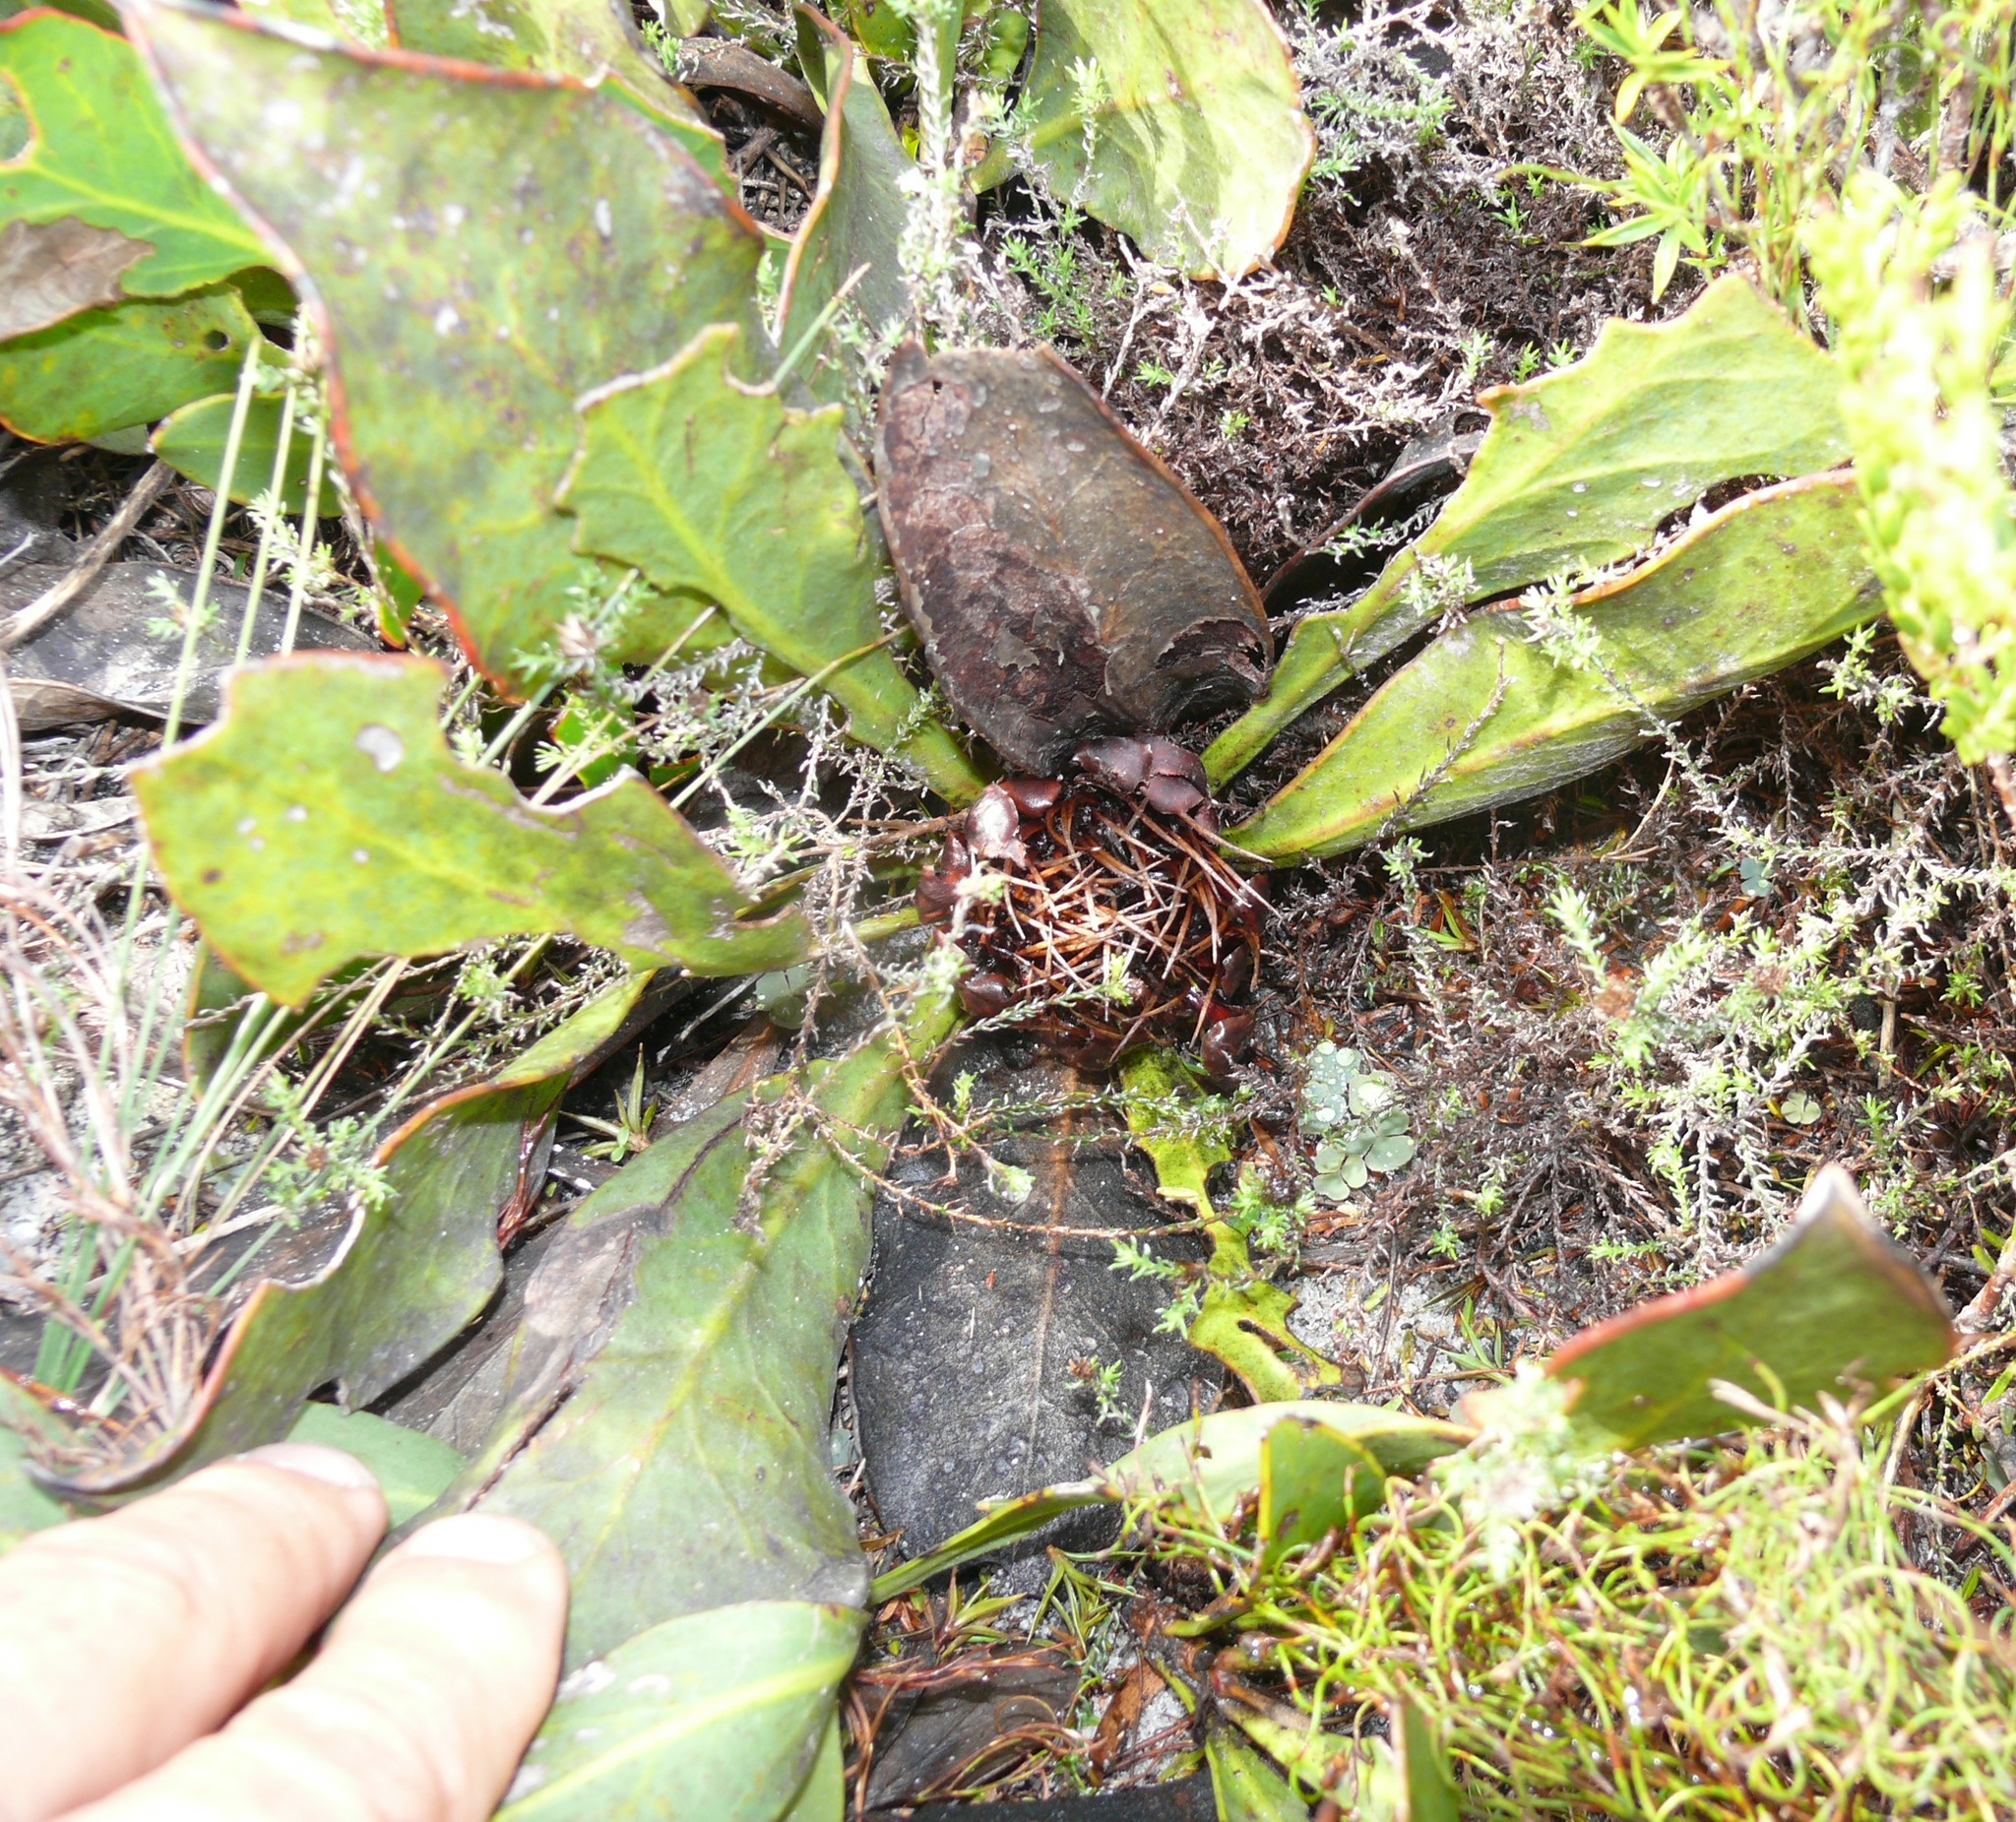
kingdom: Plantae
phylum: Tracheophyta
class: Magnoliopsida
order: Proteales
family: Proteaceae
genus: Protea
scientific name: Protea acaulos
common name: Common ground sugarbush
